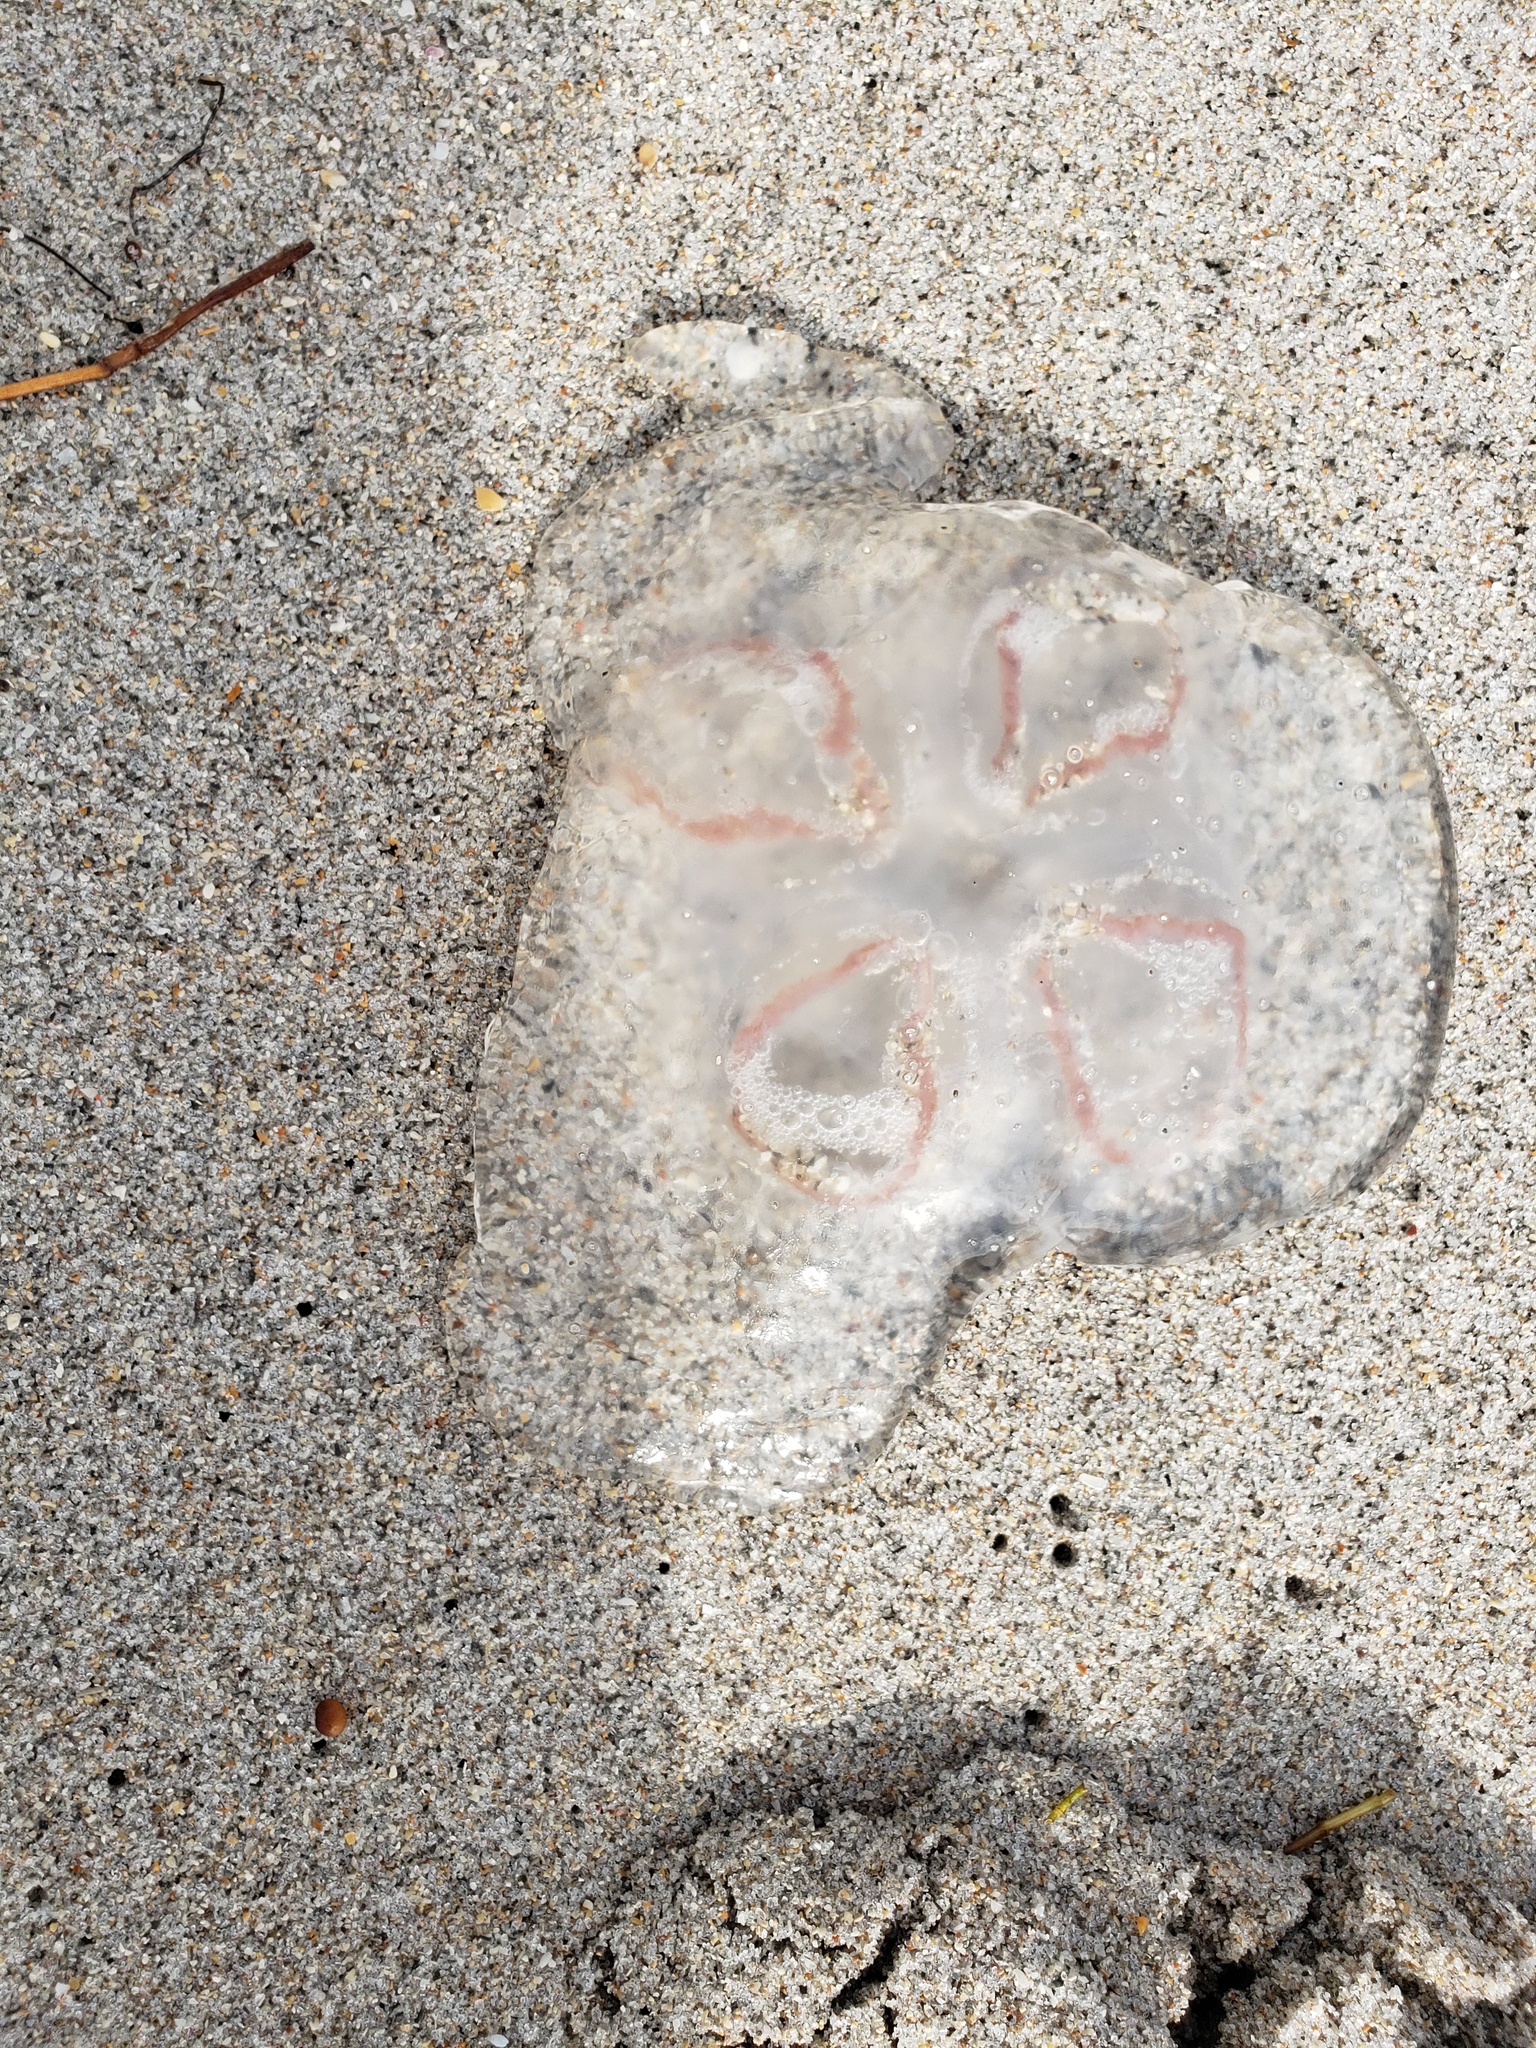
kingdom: Animalia
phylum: Cnidaria
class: Scyphozoa
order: Semaeostomeae
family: Ulmaridae
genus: Aurelia
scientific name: Aurelia marginalis
